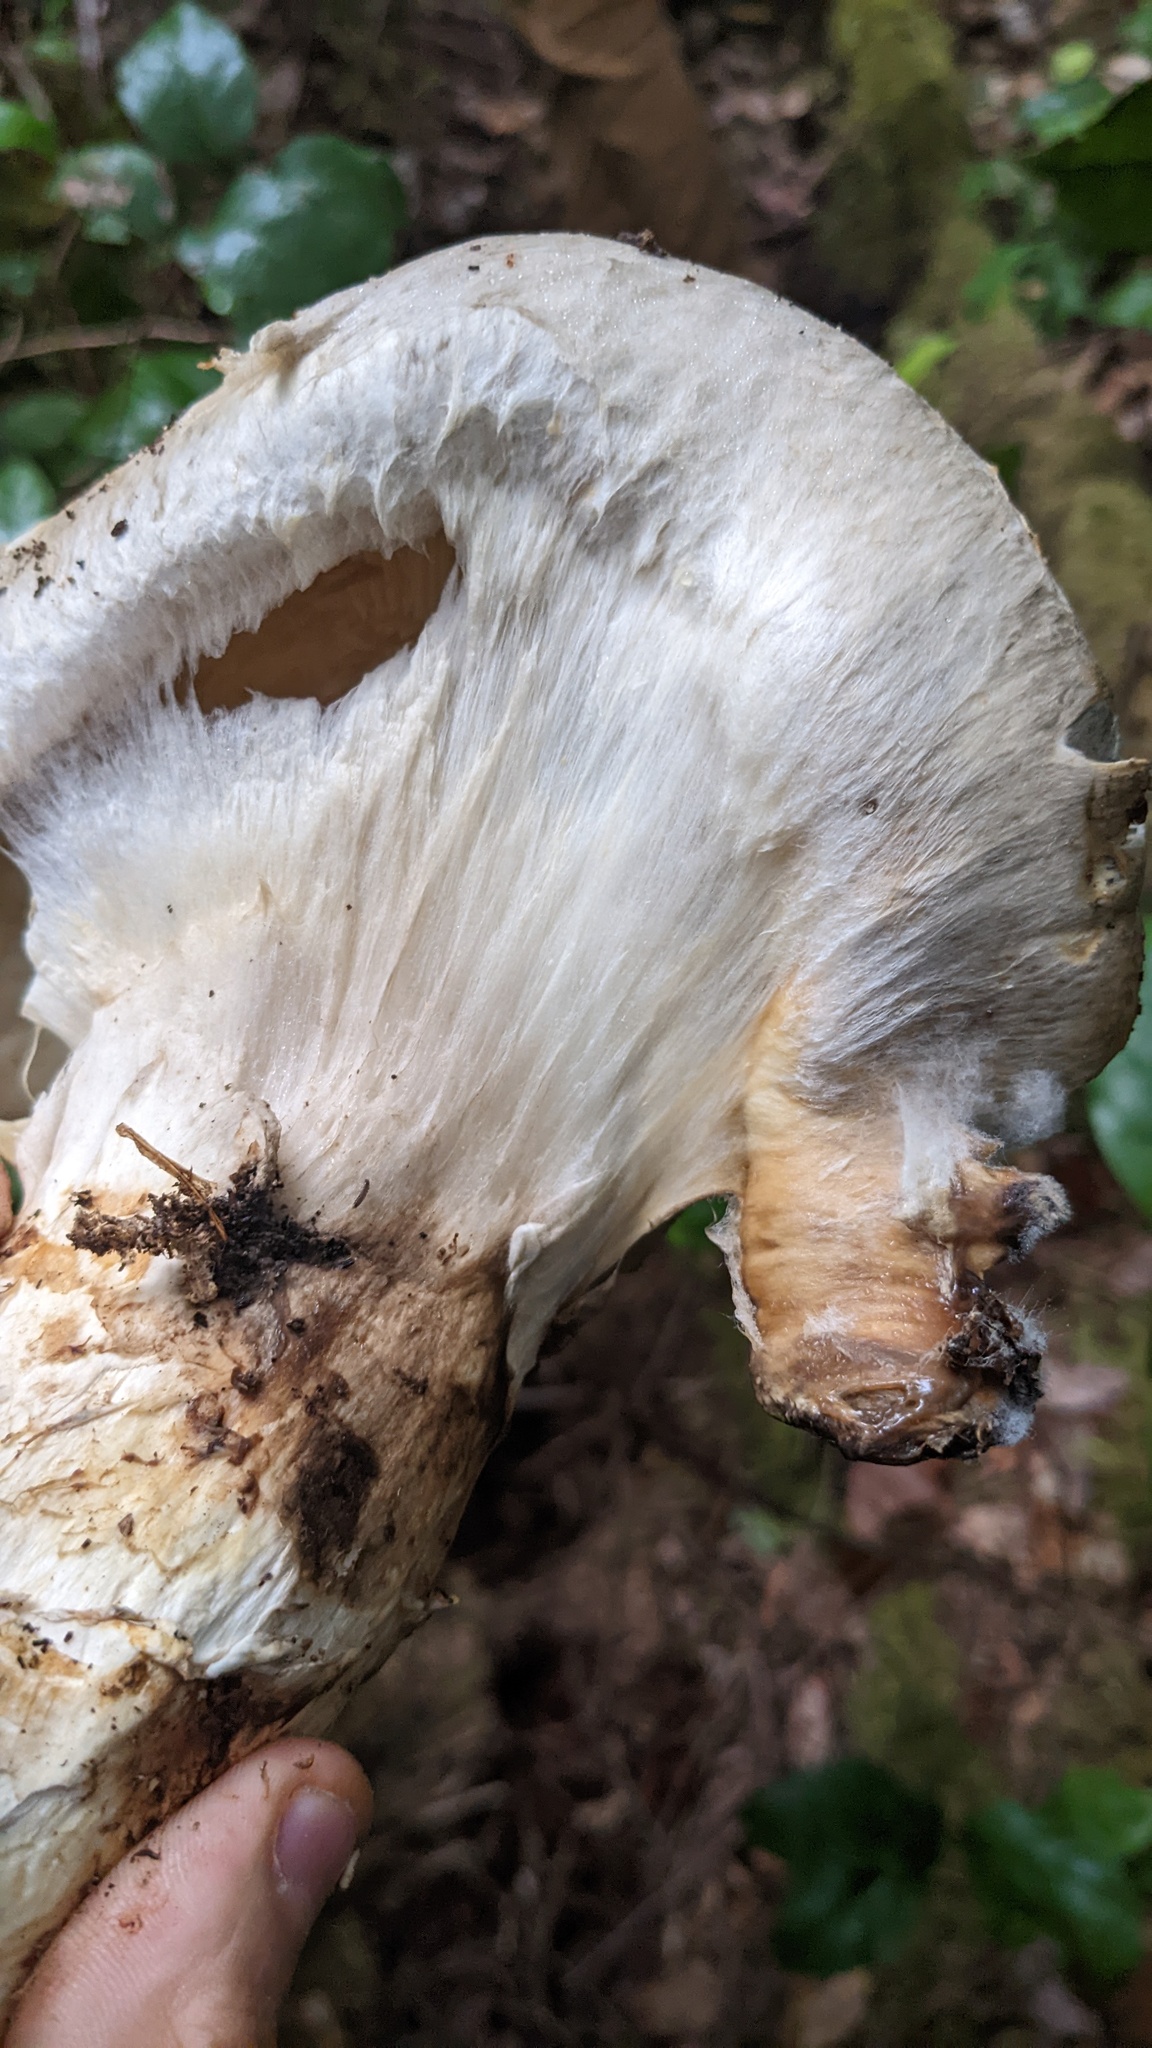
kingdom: Fungi
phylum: Basidiomycota
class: Agaricomycetes
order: Agaricales
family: Biannulariaceae
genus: Catathelasma
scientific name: Catathelasma ventricosum
